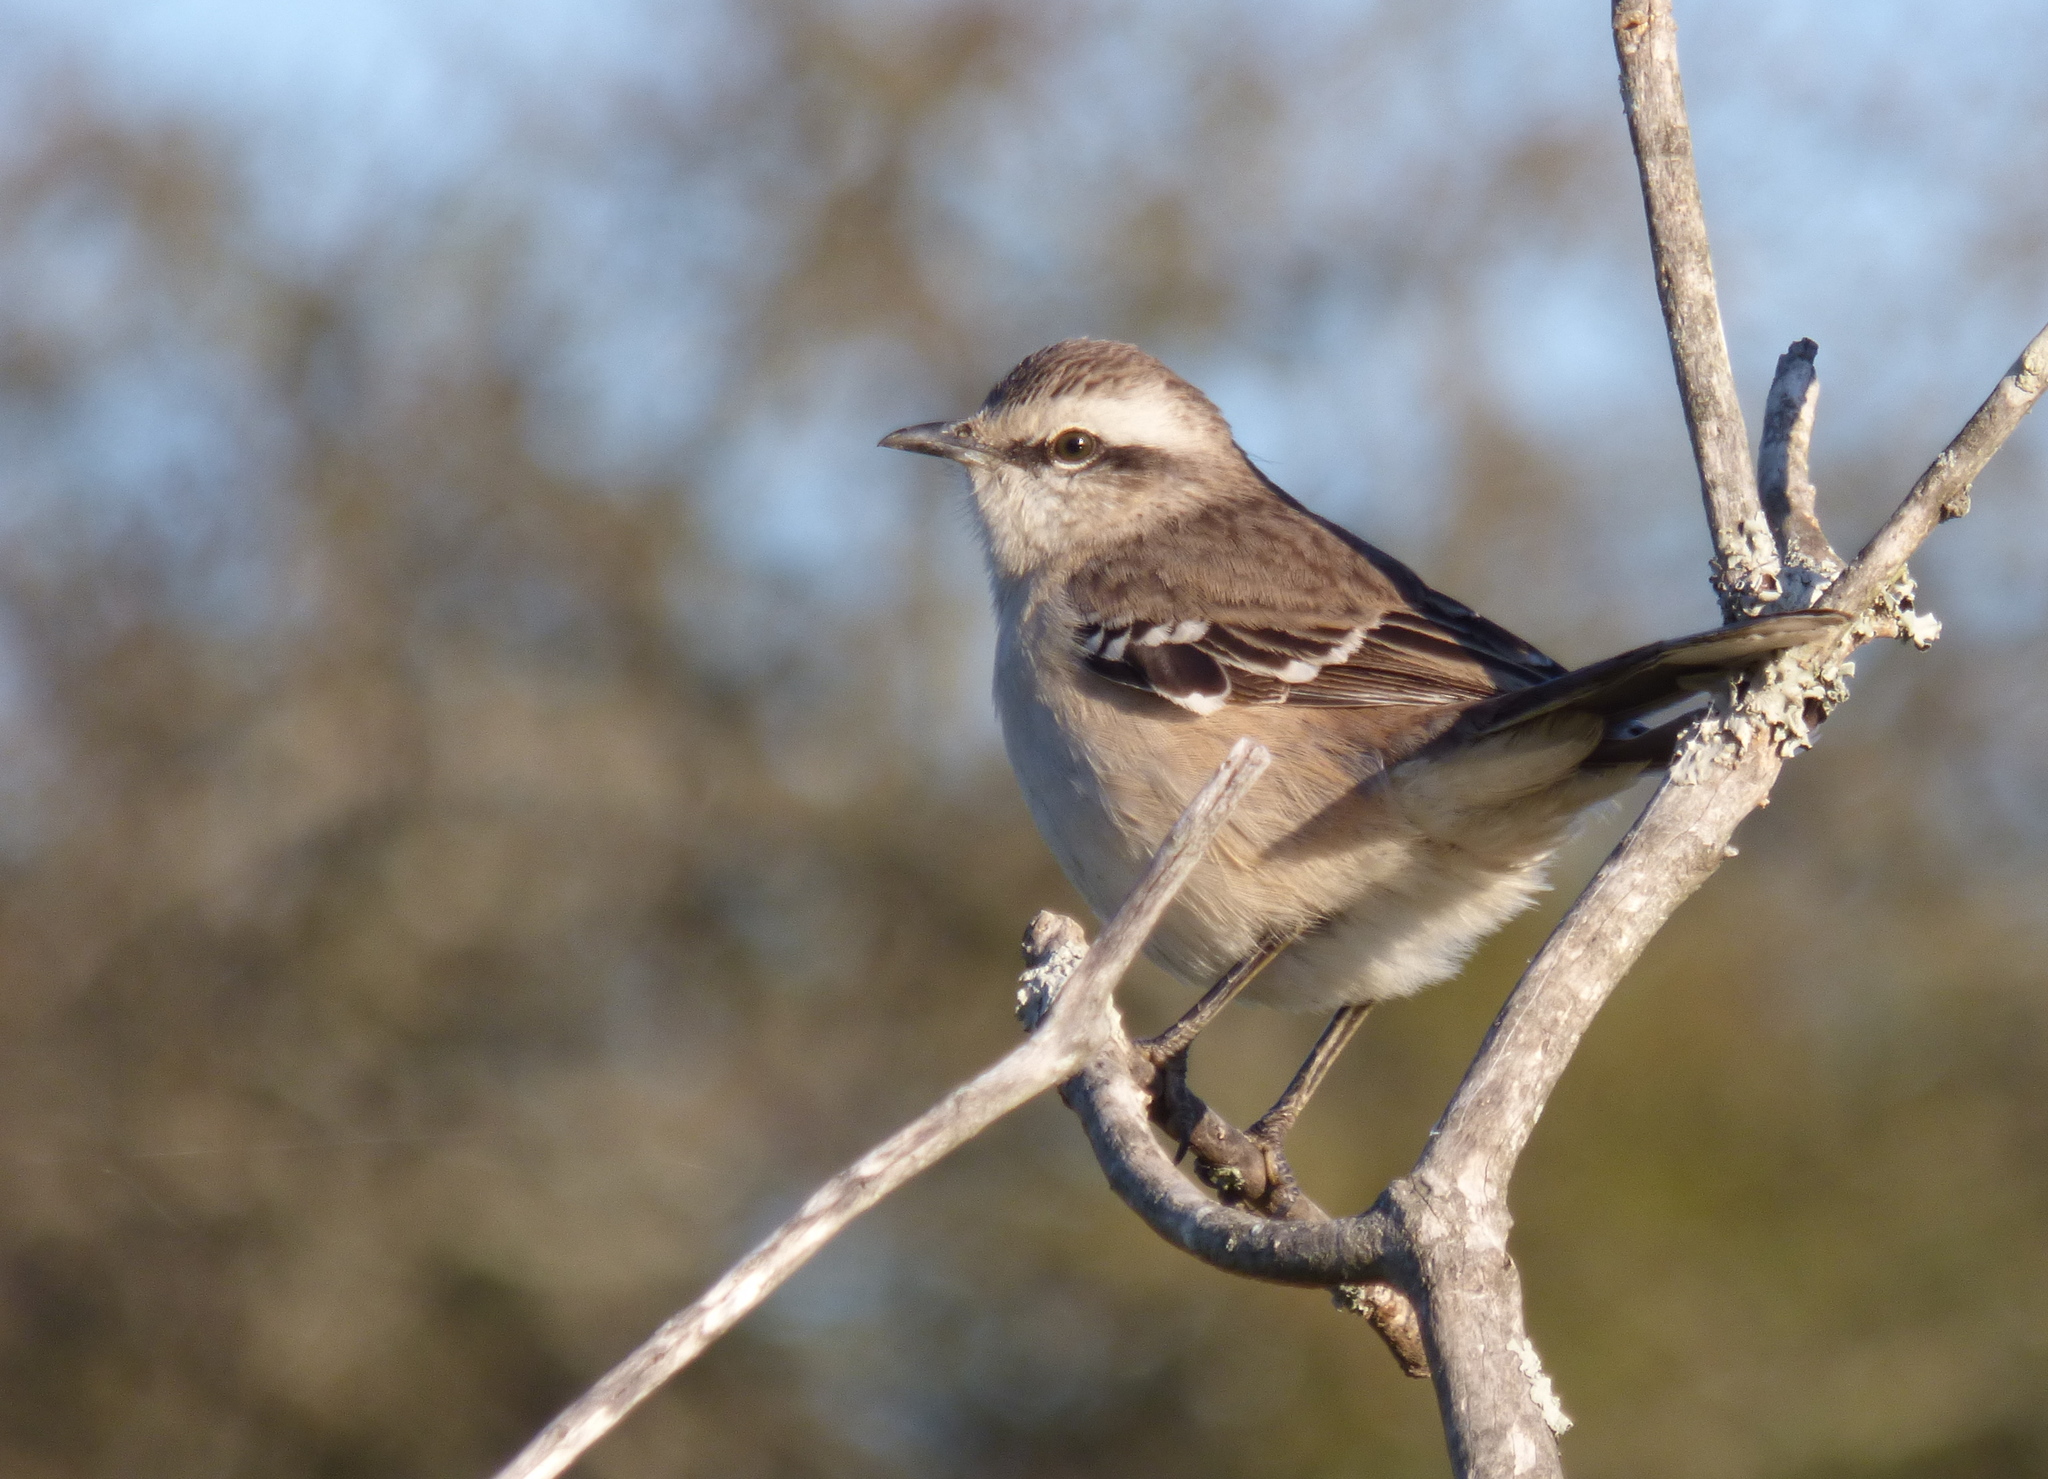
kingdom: Animalia
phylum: Chordata
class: Aves
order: Passeriformes
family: Mimidae
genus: Mimus
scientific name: Mimus saturninus
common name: Chalk-browed mockingbird
